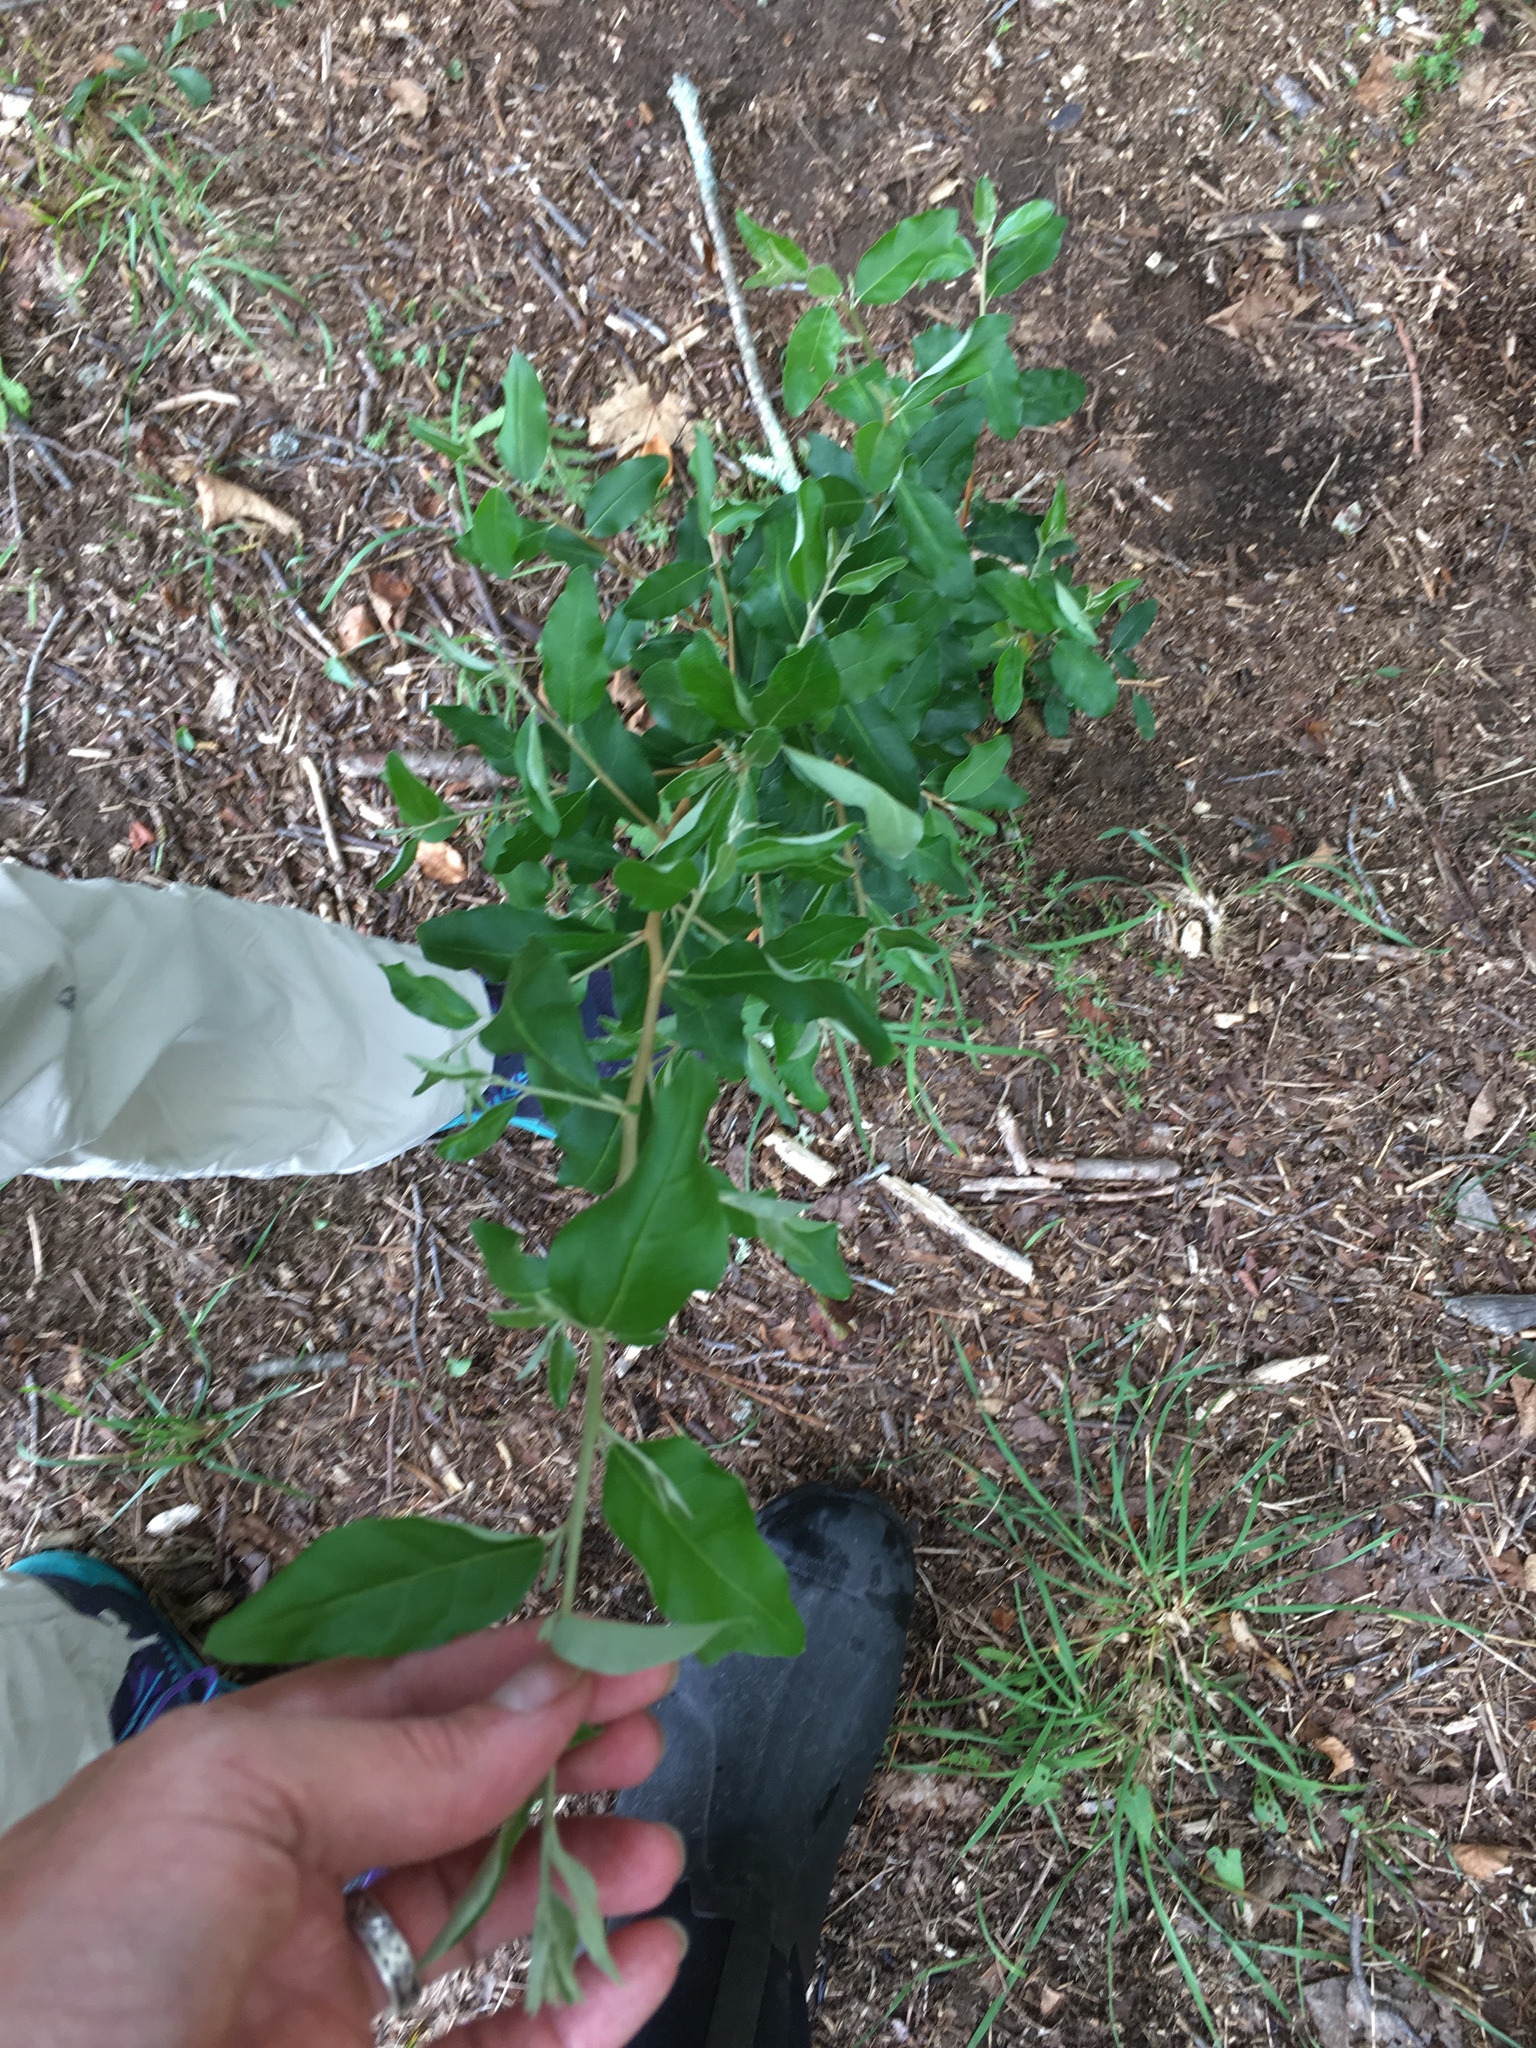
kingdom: Plantae
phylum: Tracheophyta
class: Magnoliopsida
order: Rosales
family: Elaeagnaceae
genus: Elaeagnus
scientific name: Elaeagnus umbellata
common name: Autumn olive
